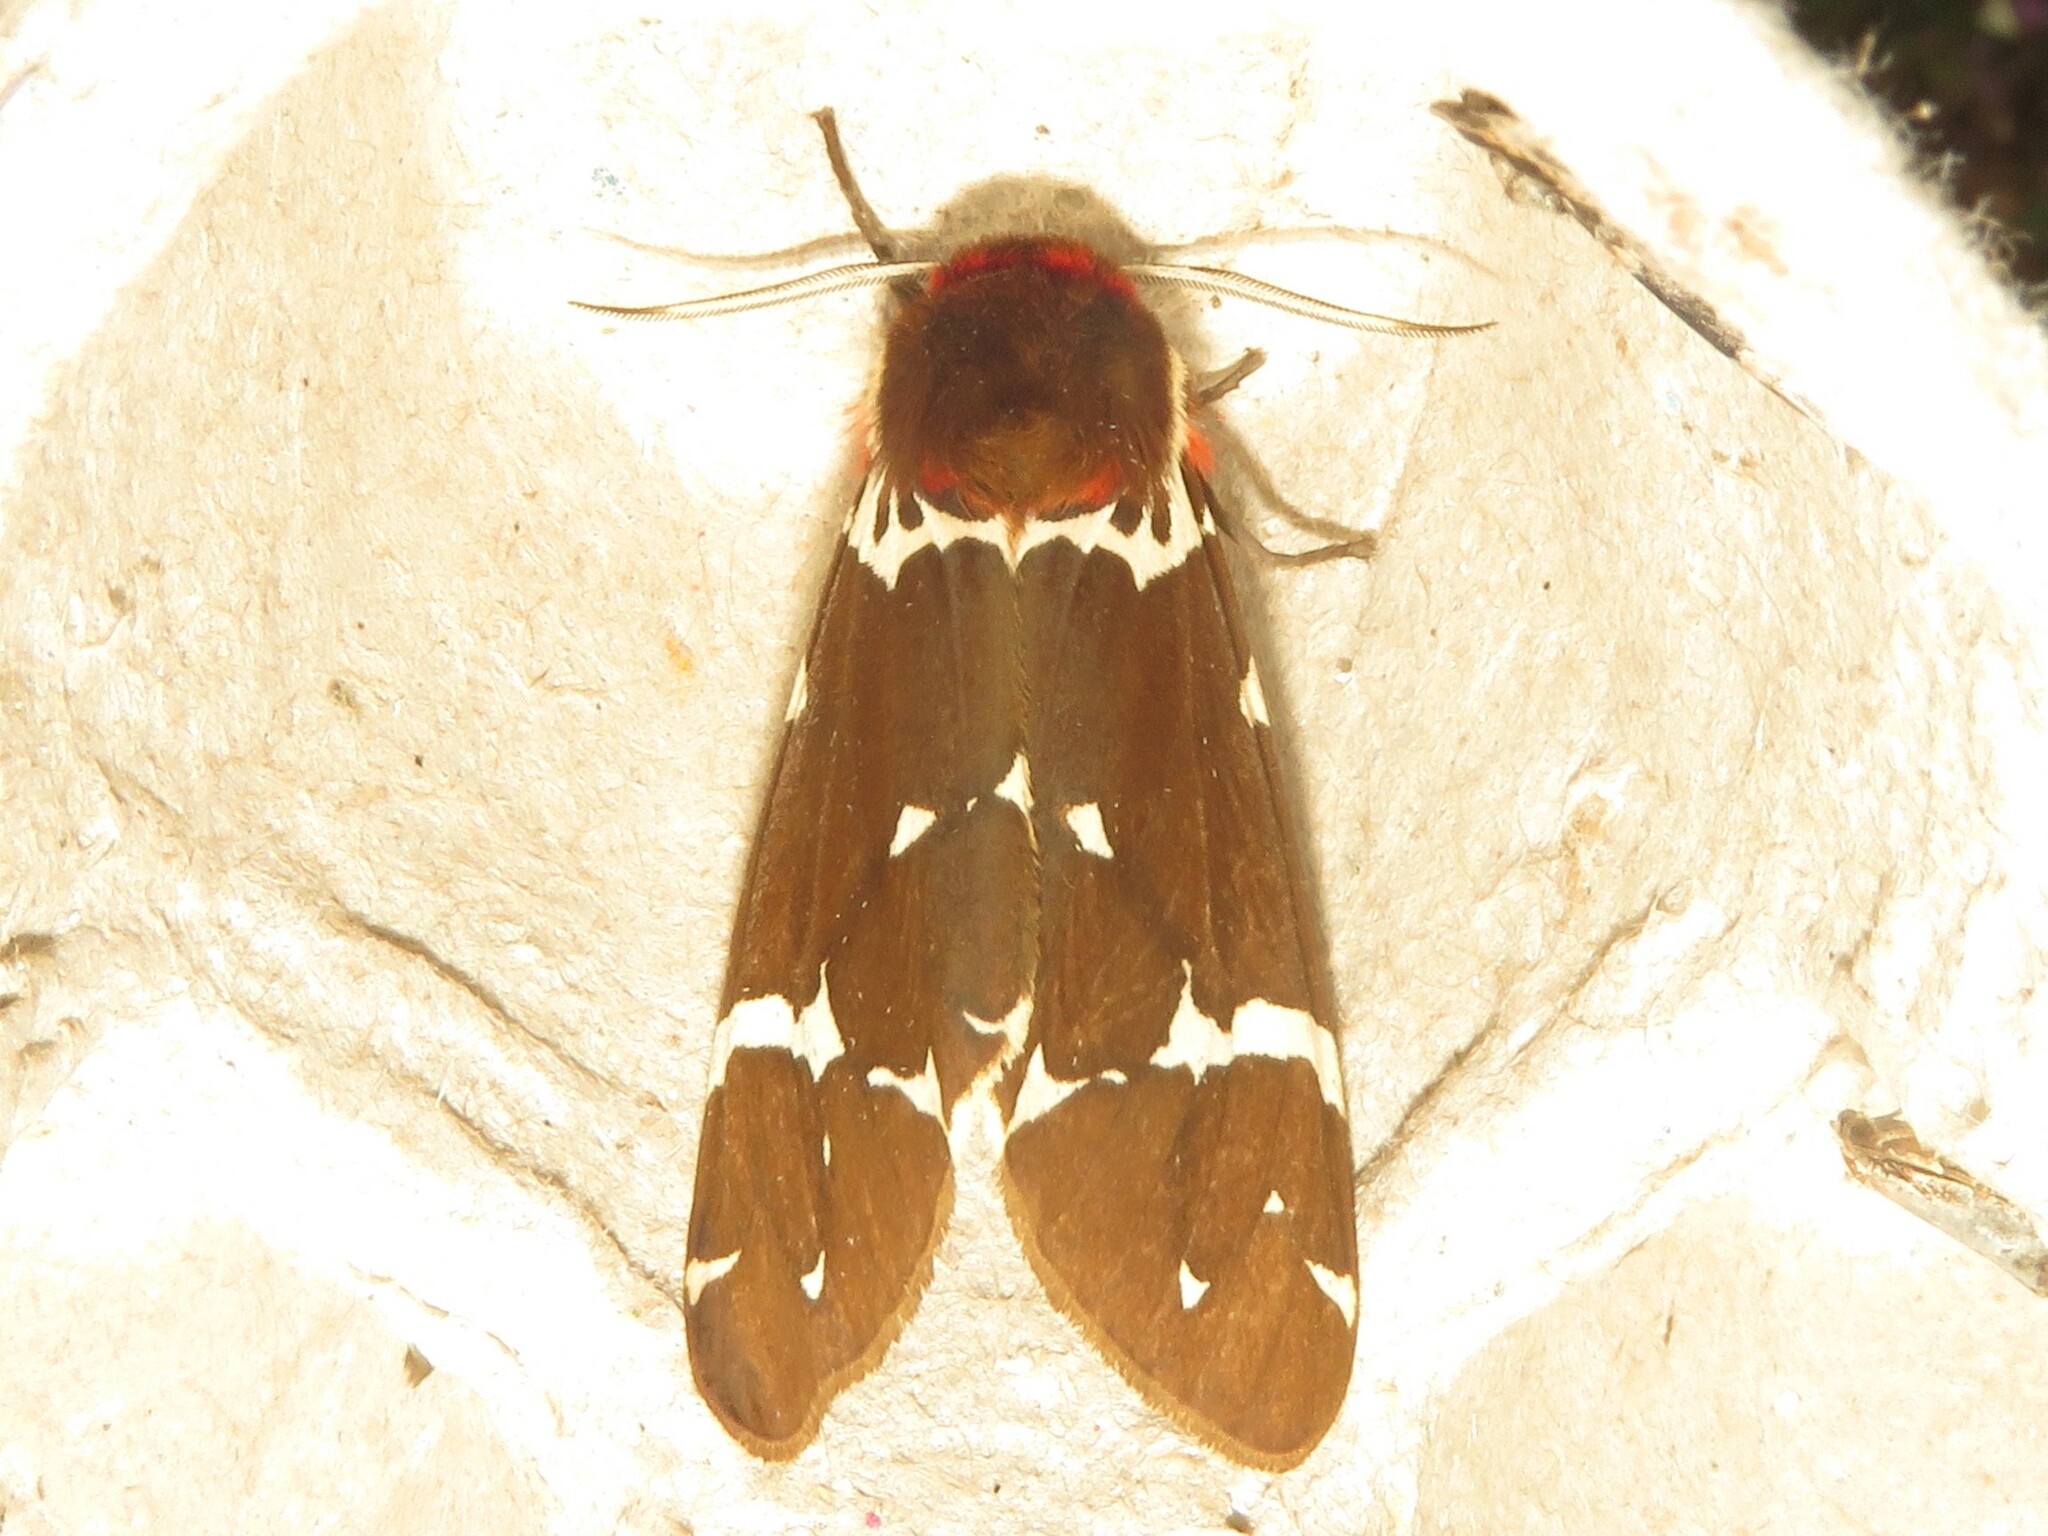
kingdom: Animalia
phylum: Arthropoda
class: Insecta
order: Lepidoptera
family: Erebidae
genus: Arctia
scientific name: Arctia caja
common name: Garden tiger
